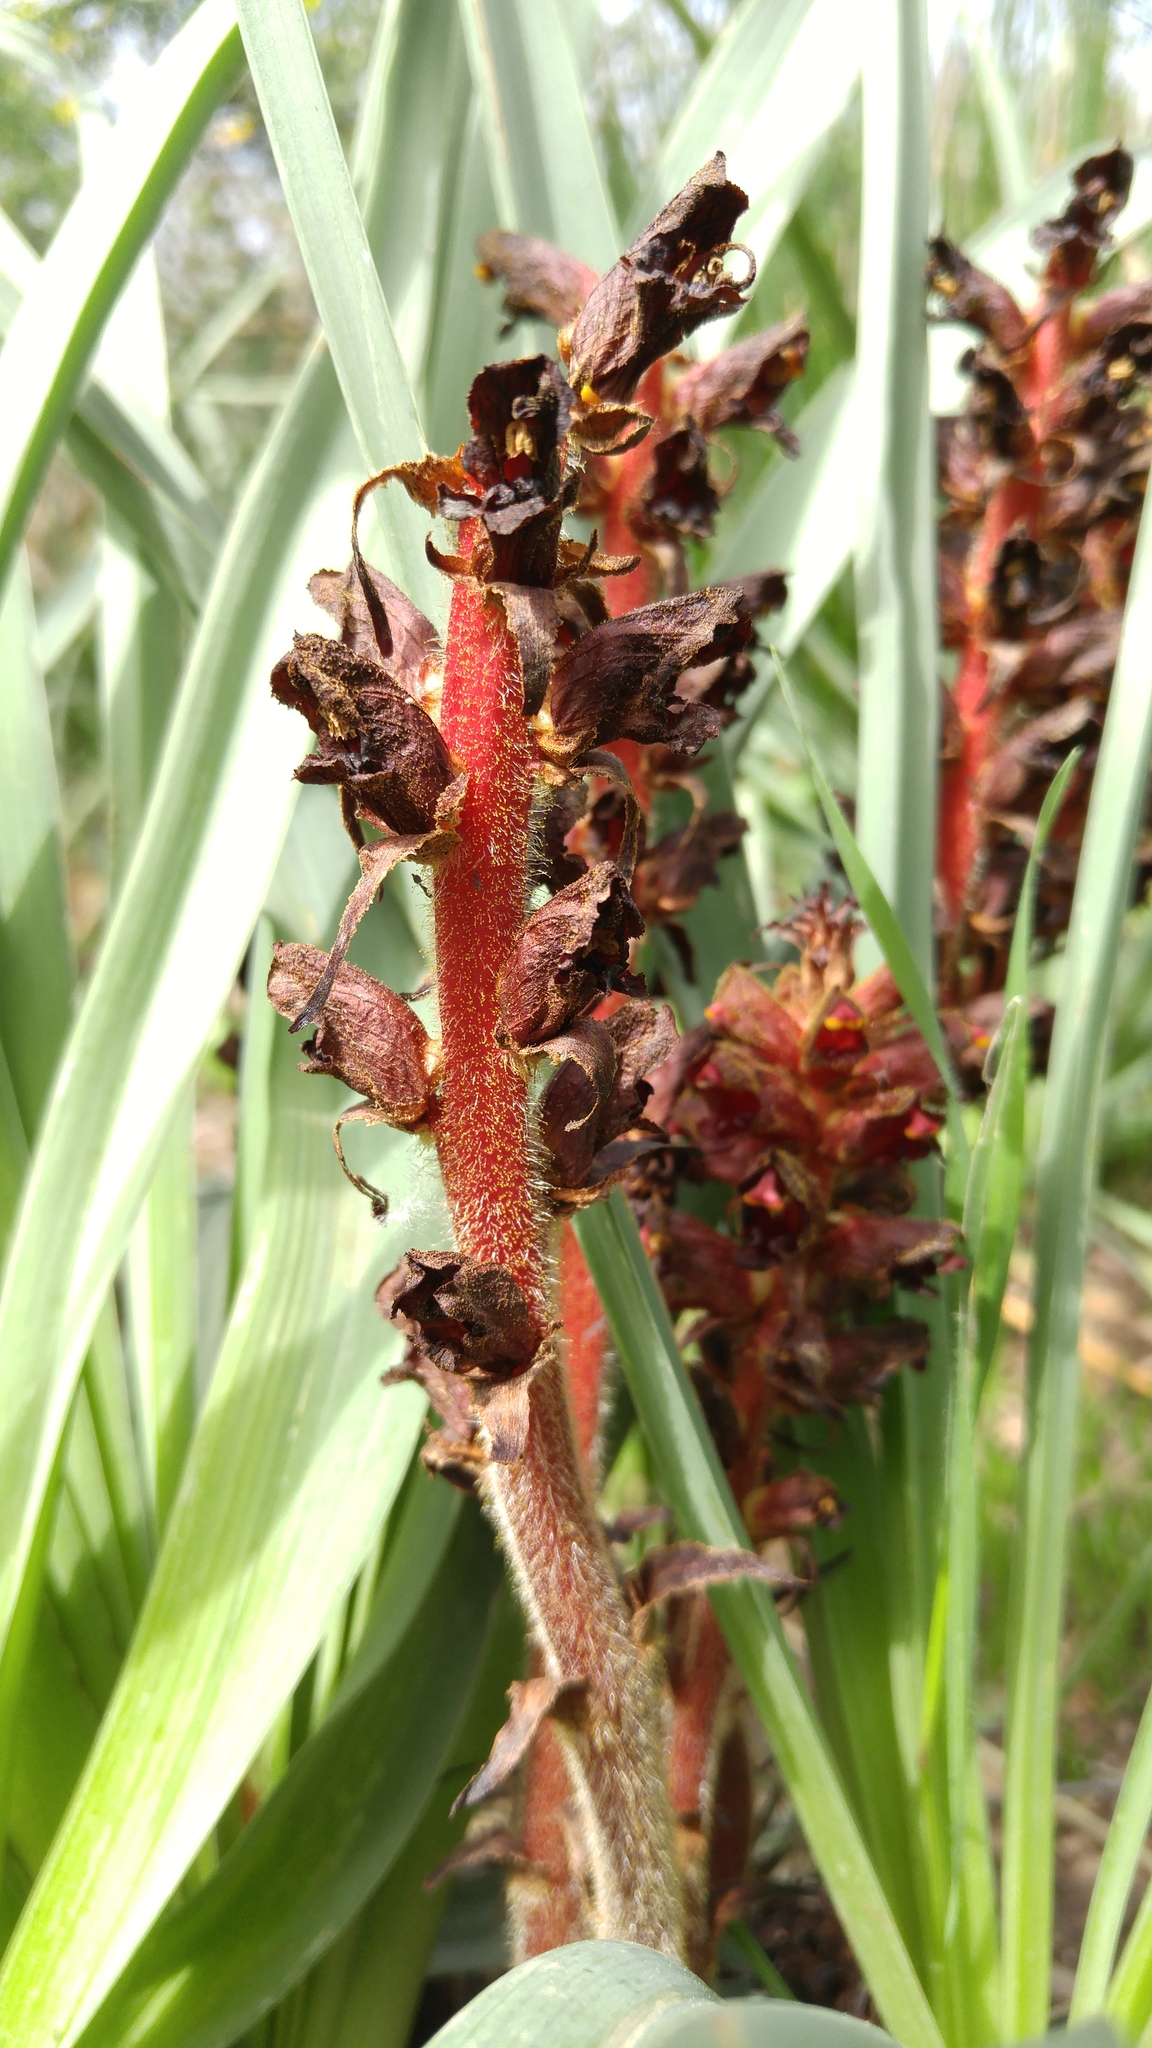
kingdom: Plantae
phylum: Tracheophyta
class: Magnoliopsida
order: Lamiales
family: Orobanchaceae
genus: Orobanche
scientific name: Orobanche variegata
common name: Variegated broomrape
